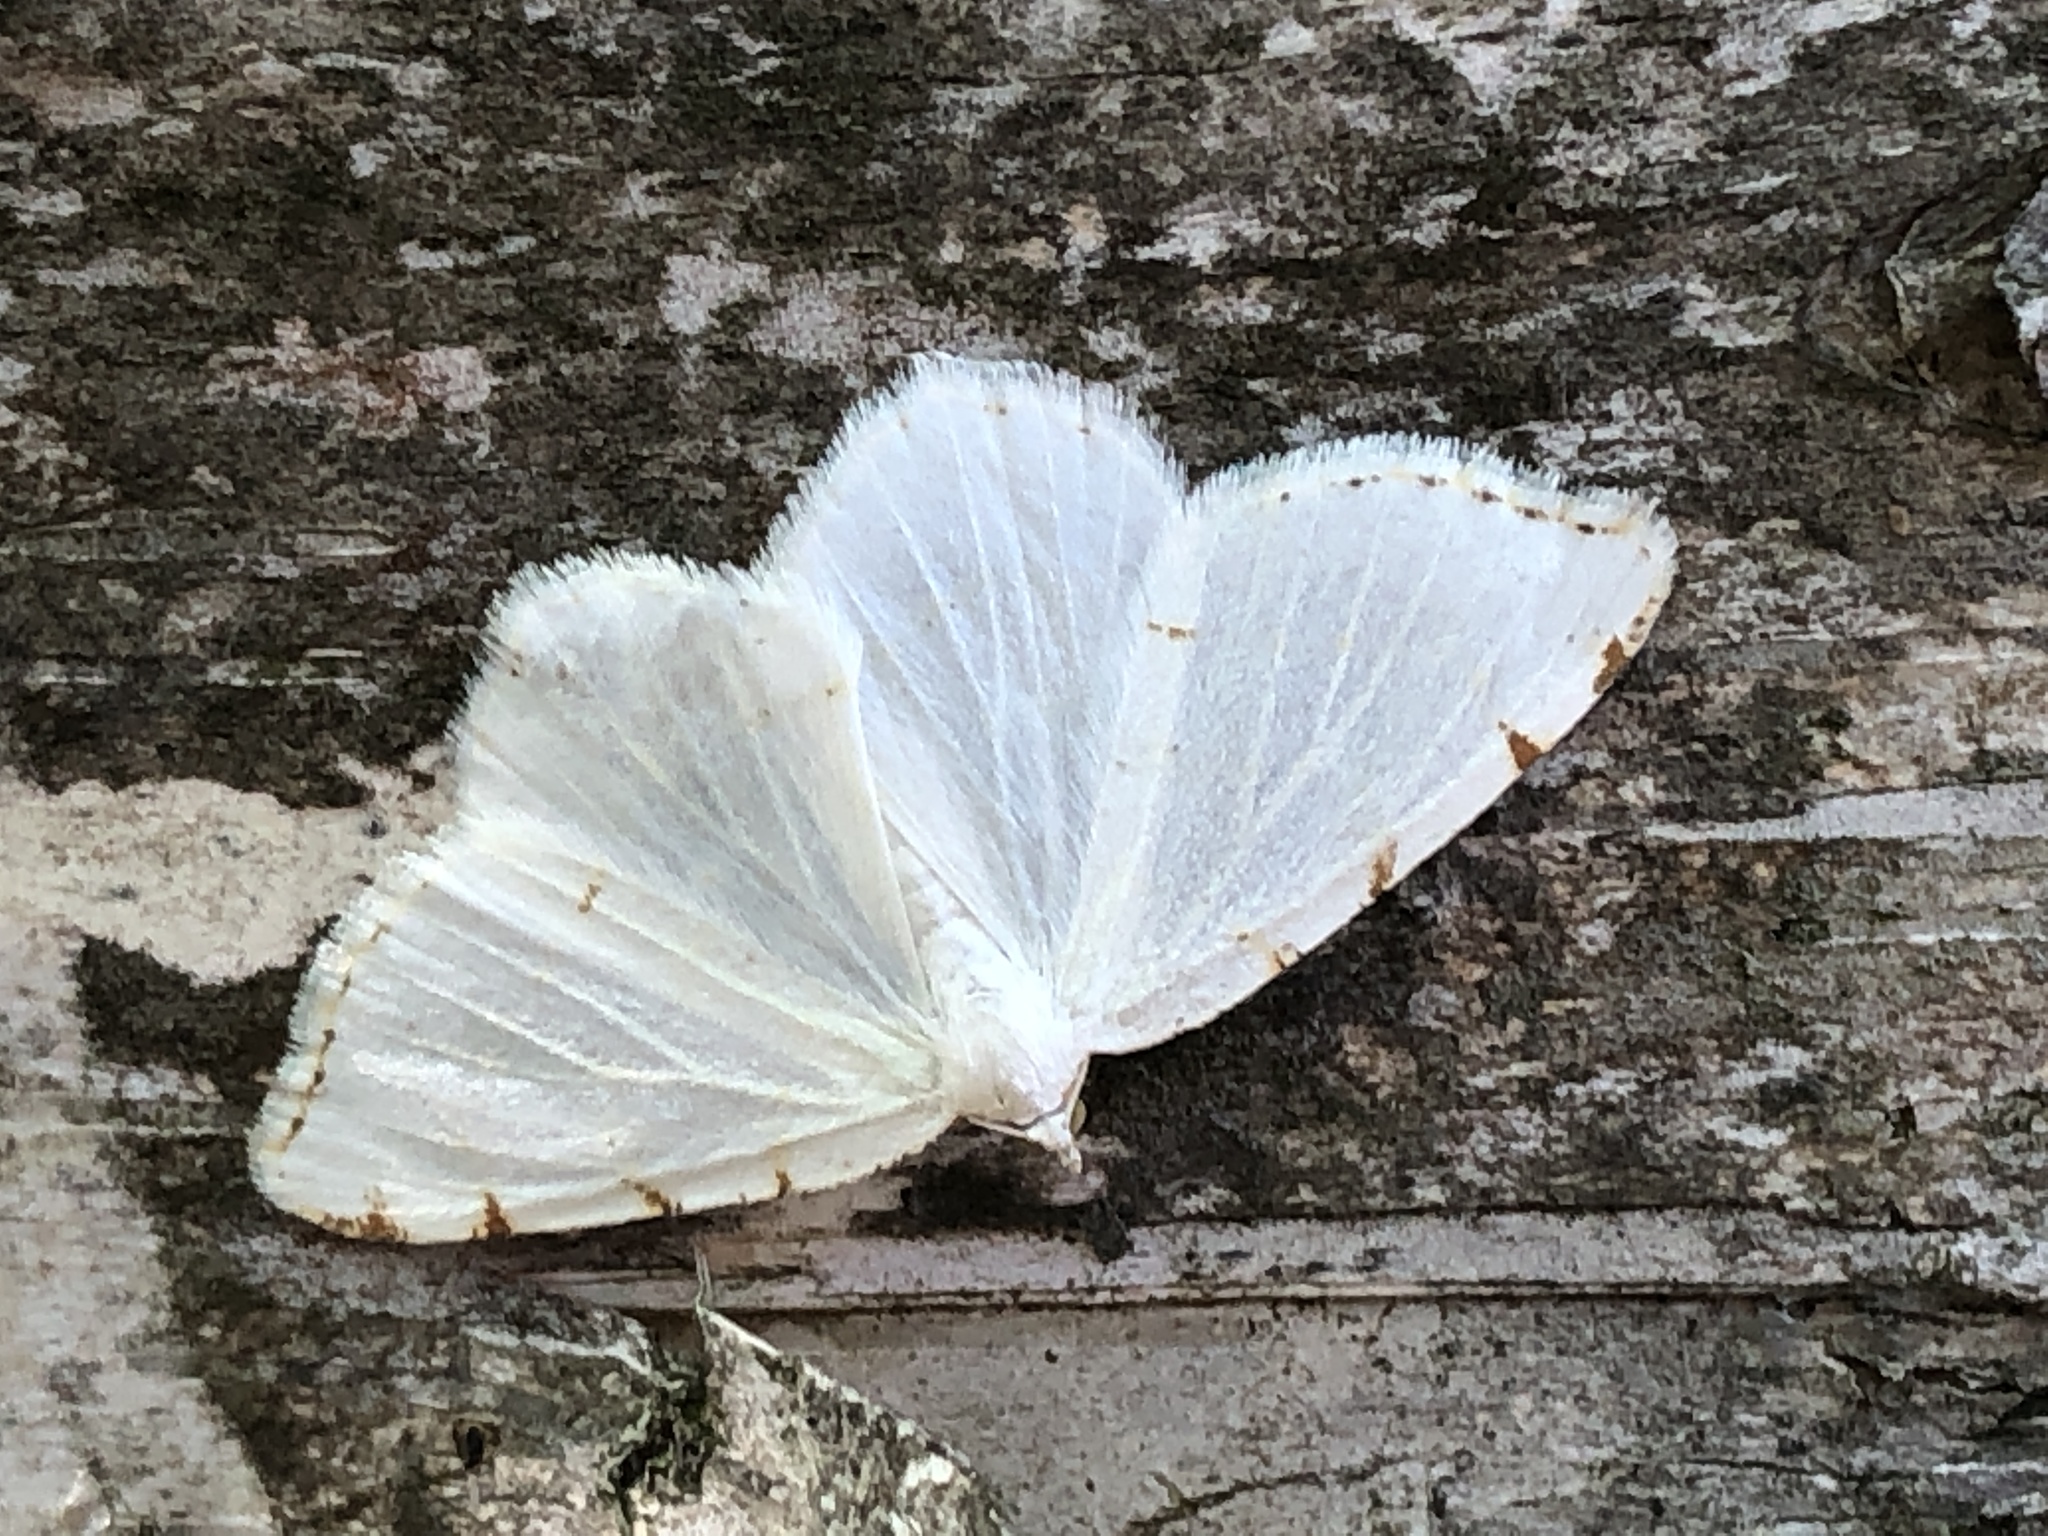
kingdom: Animalia
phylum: Arthropoda
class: Insecta
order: Lepidoptera
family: Geometridae
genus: Macaria
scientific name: Macaria pustularia
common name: Lesser maple spanworm moth
